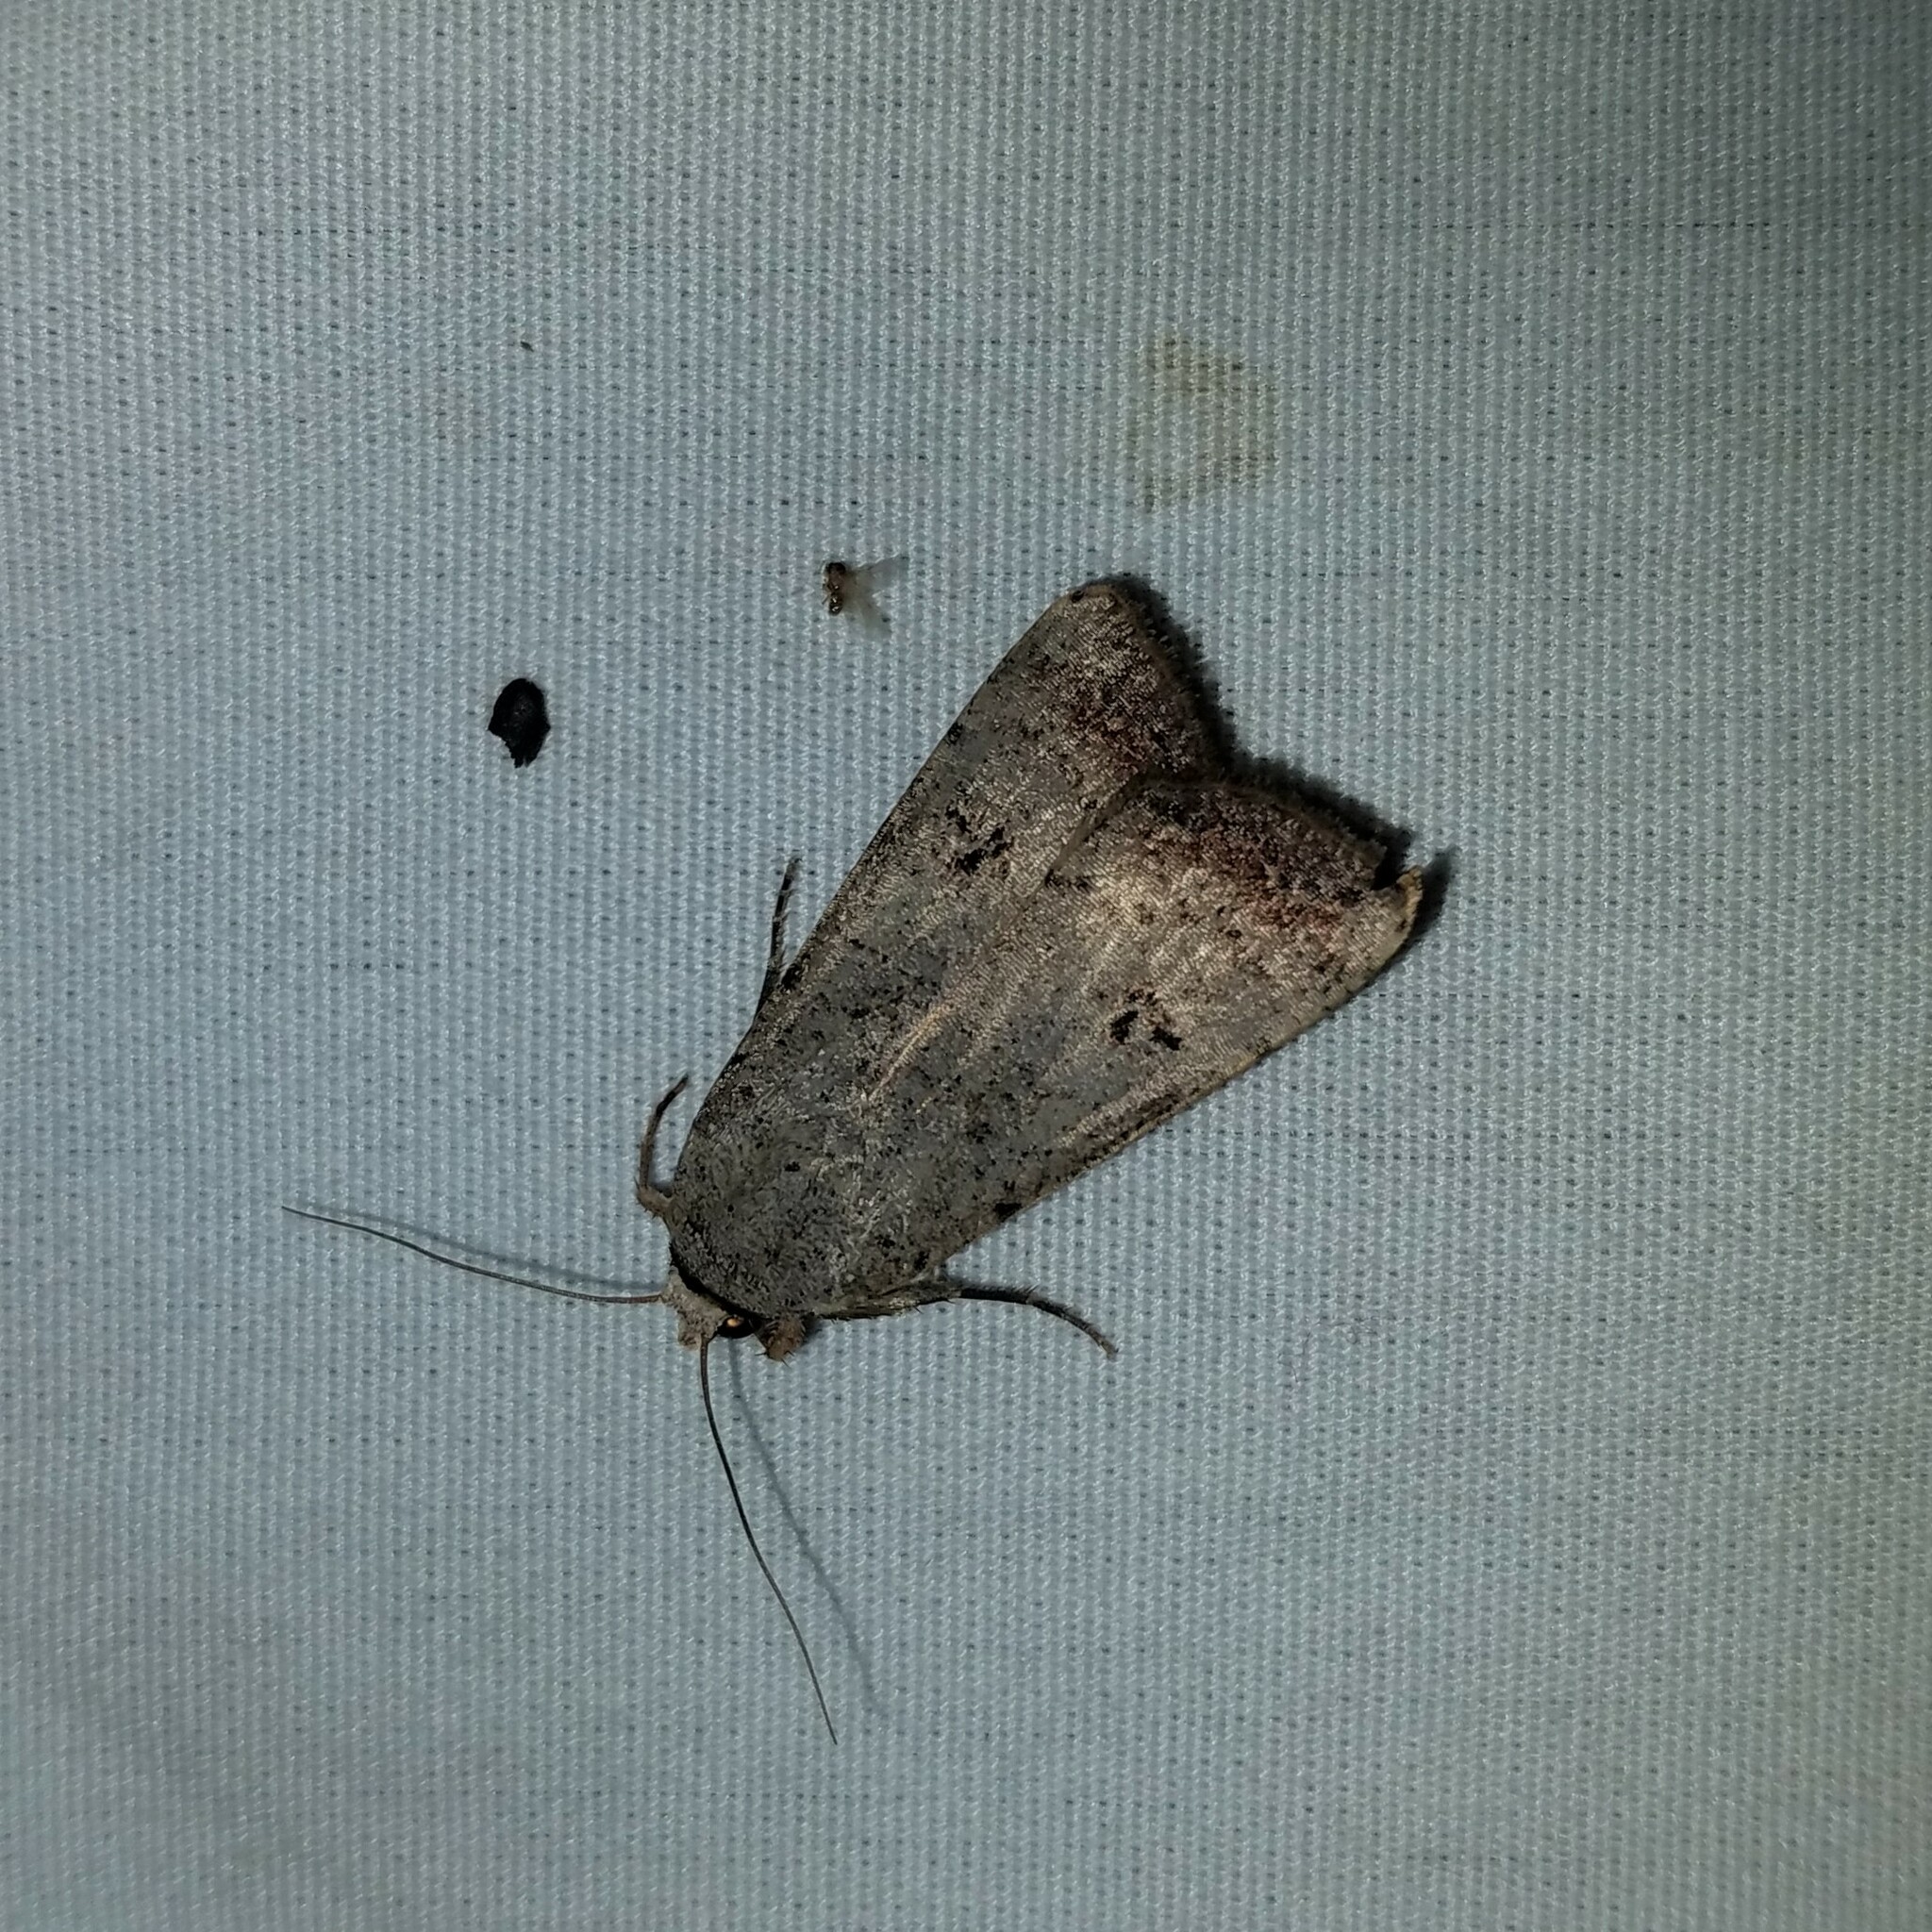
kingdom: Animalia
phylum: Arthropoda
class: Insecta
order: Lepidoptera
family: Noctuidae
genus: Anicla
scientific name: Anicla infecta
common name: Green cutworm
